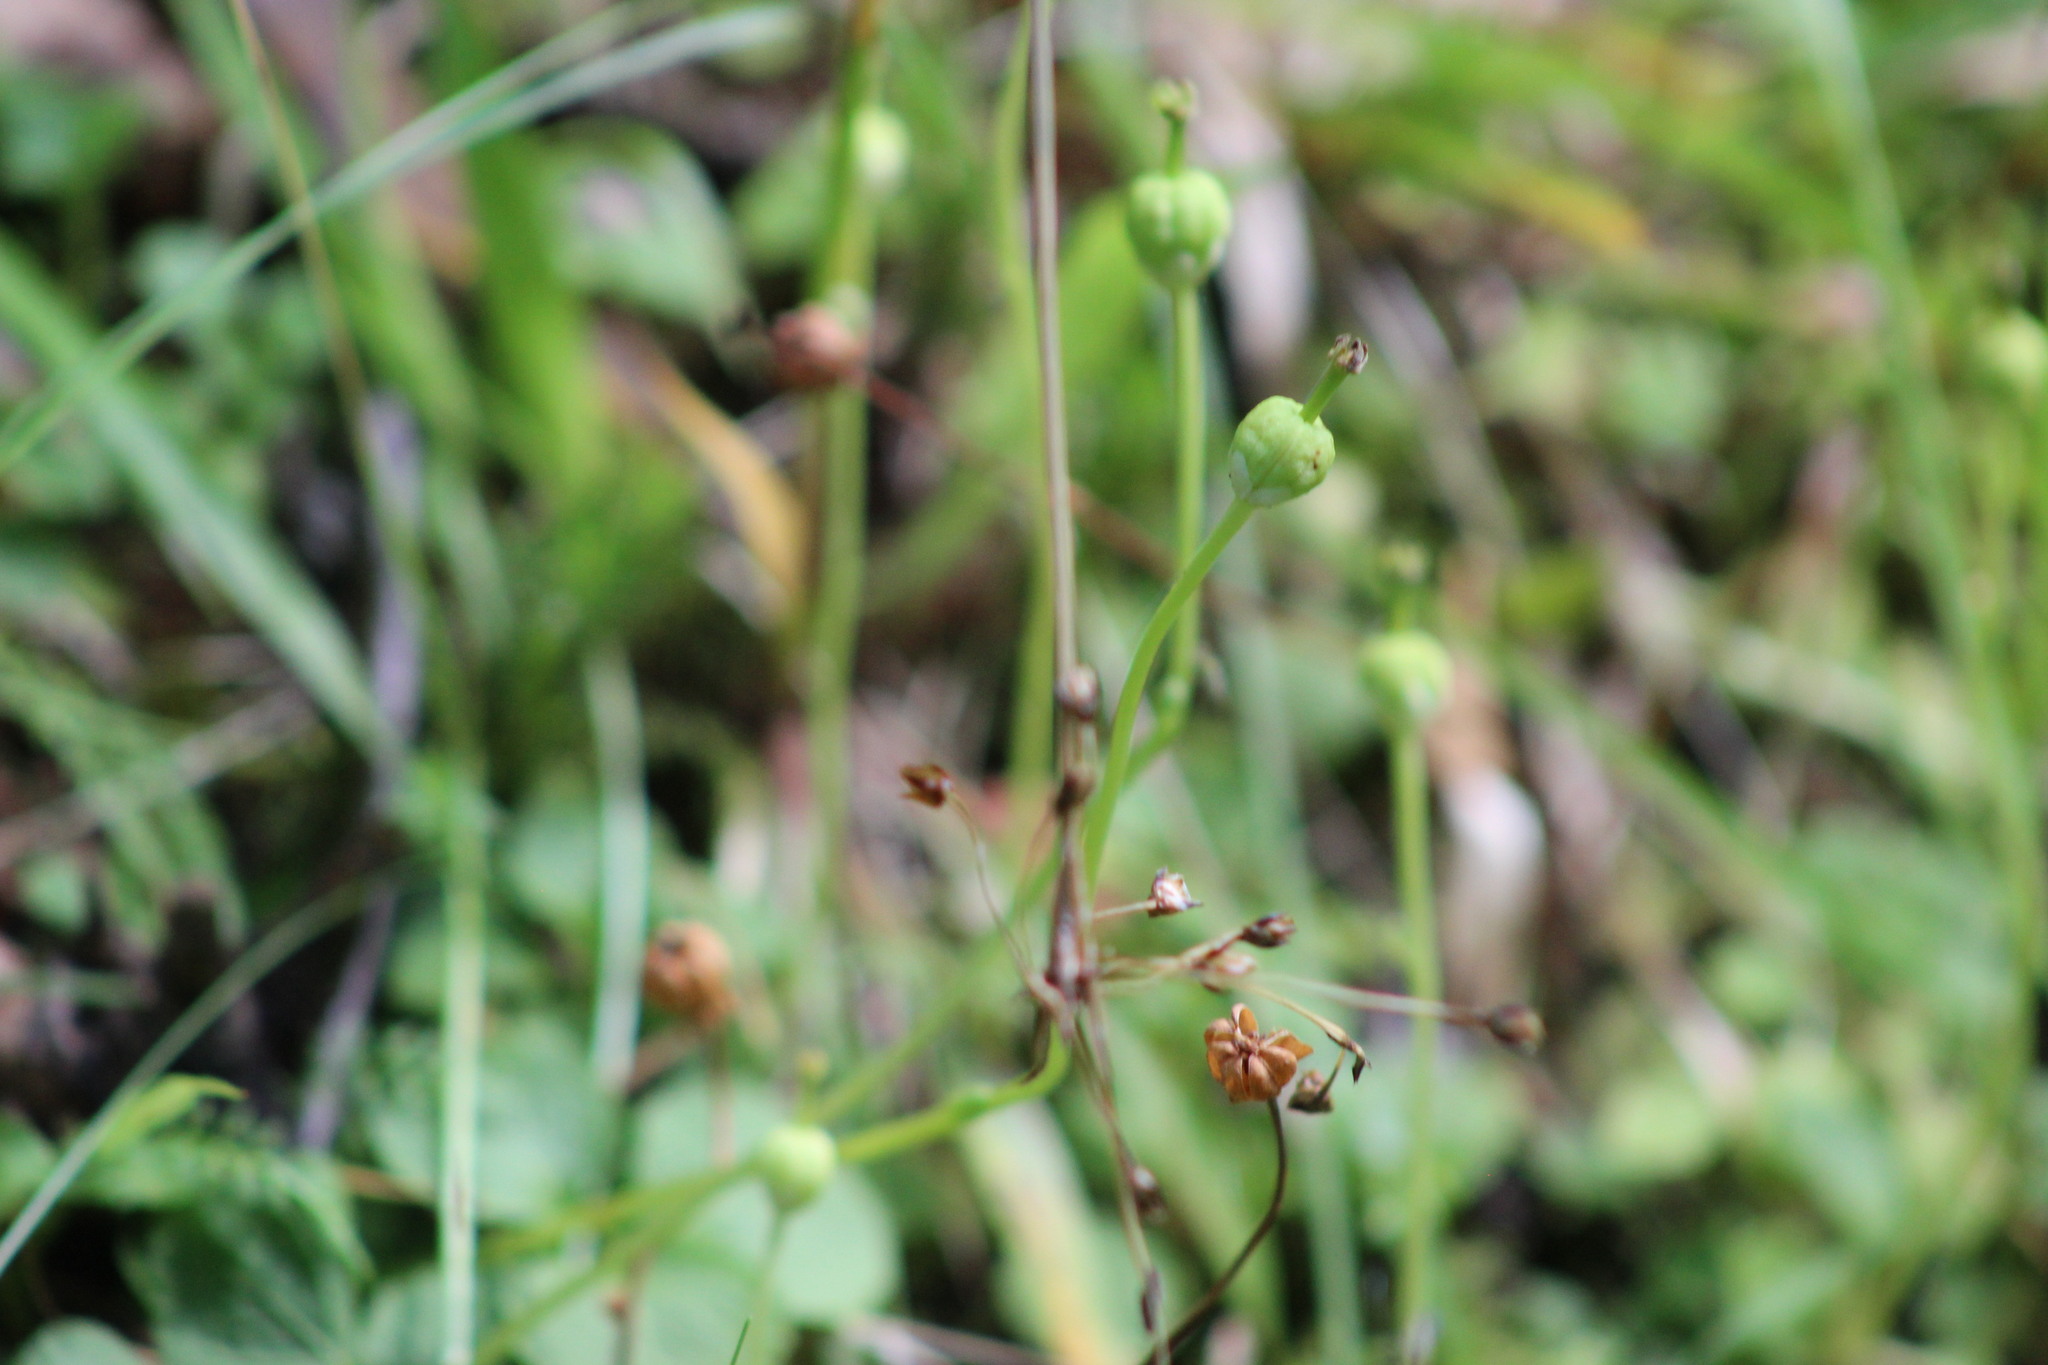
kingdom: Plantae
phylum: Tracheophyta
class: Magnoliopsida
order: Ericales
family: Ericaceae
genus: Moneses
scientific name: Moneses uniflora
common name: One-flowered wintergreen
